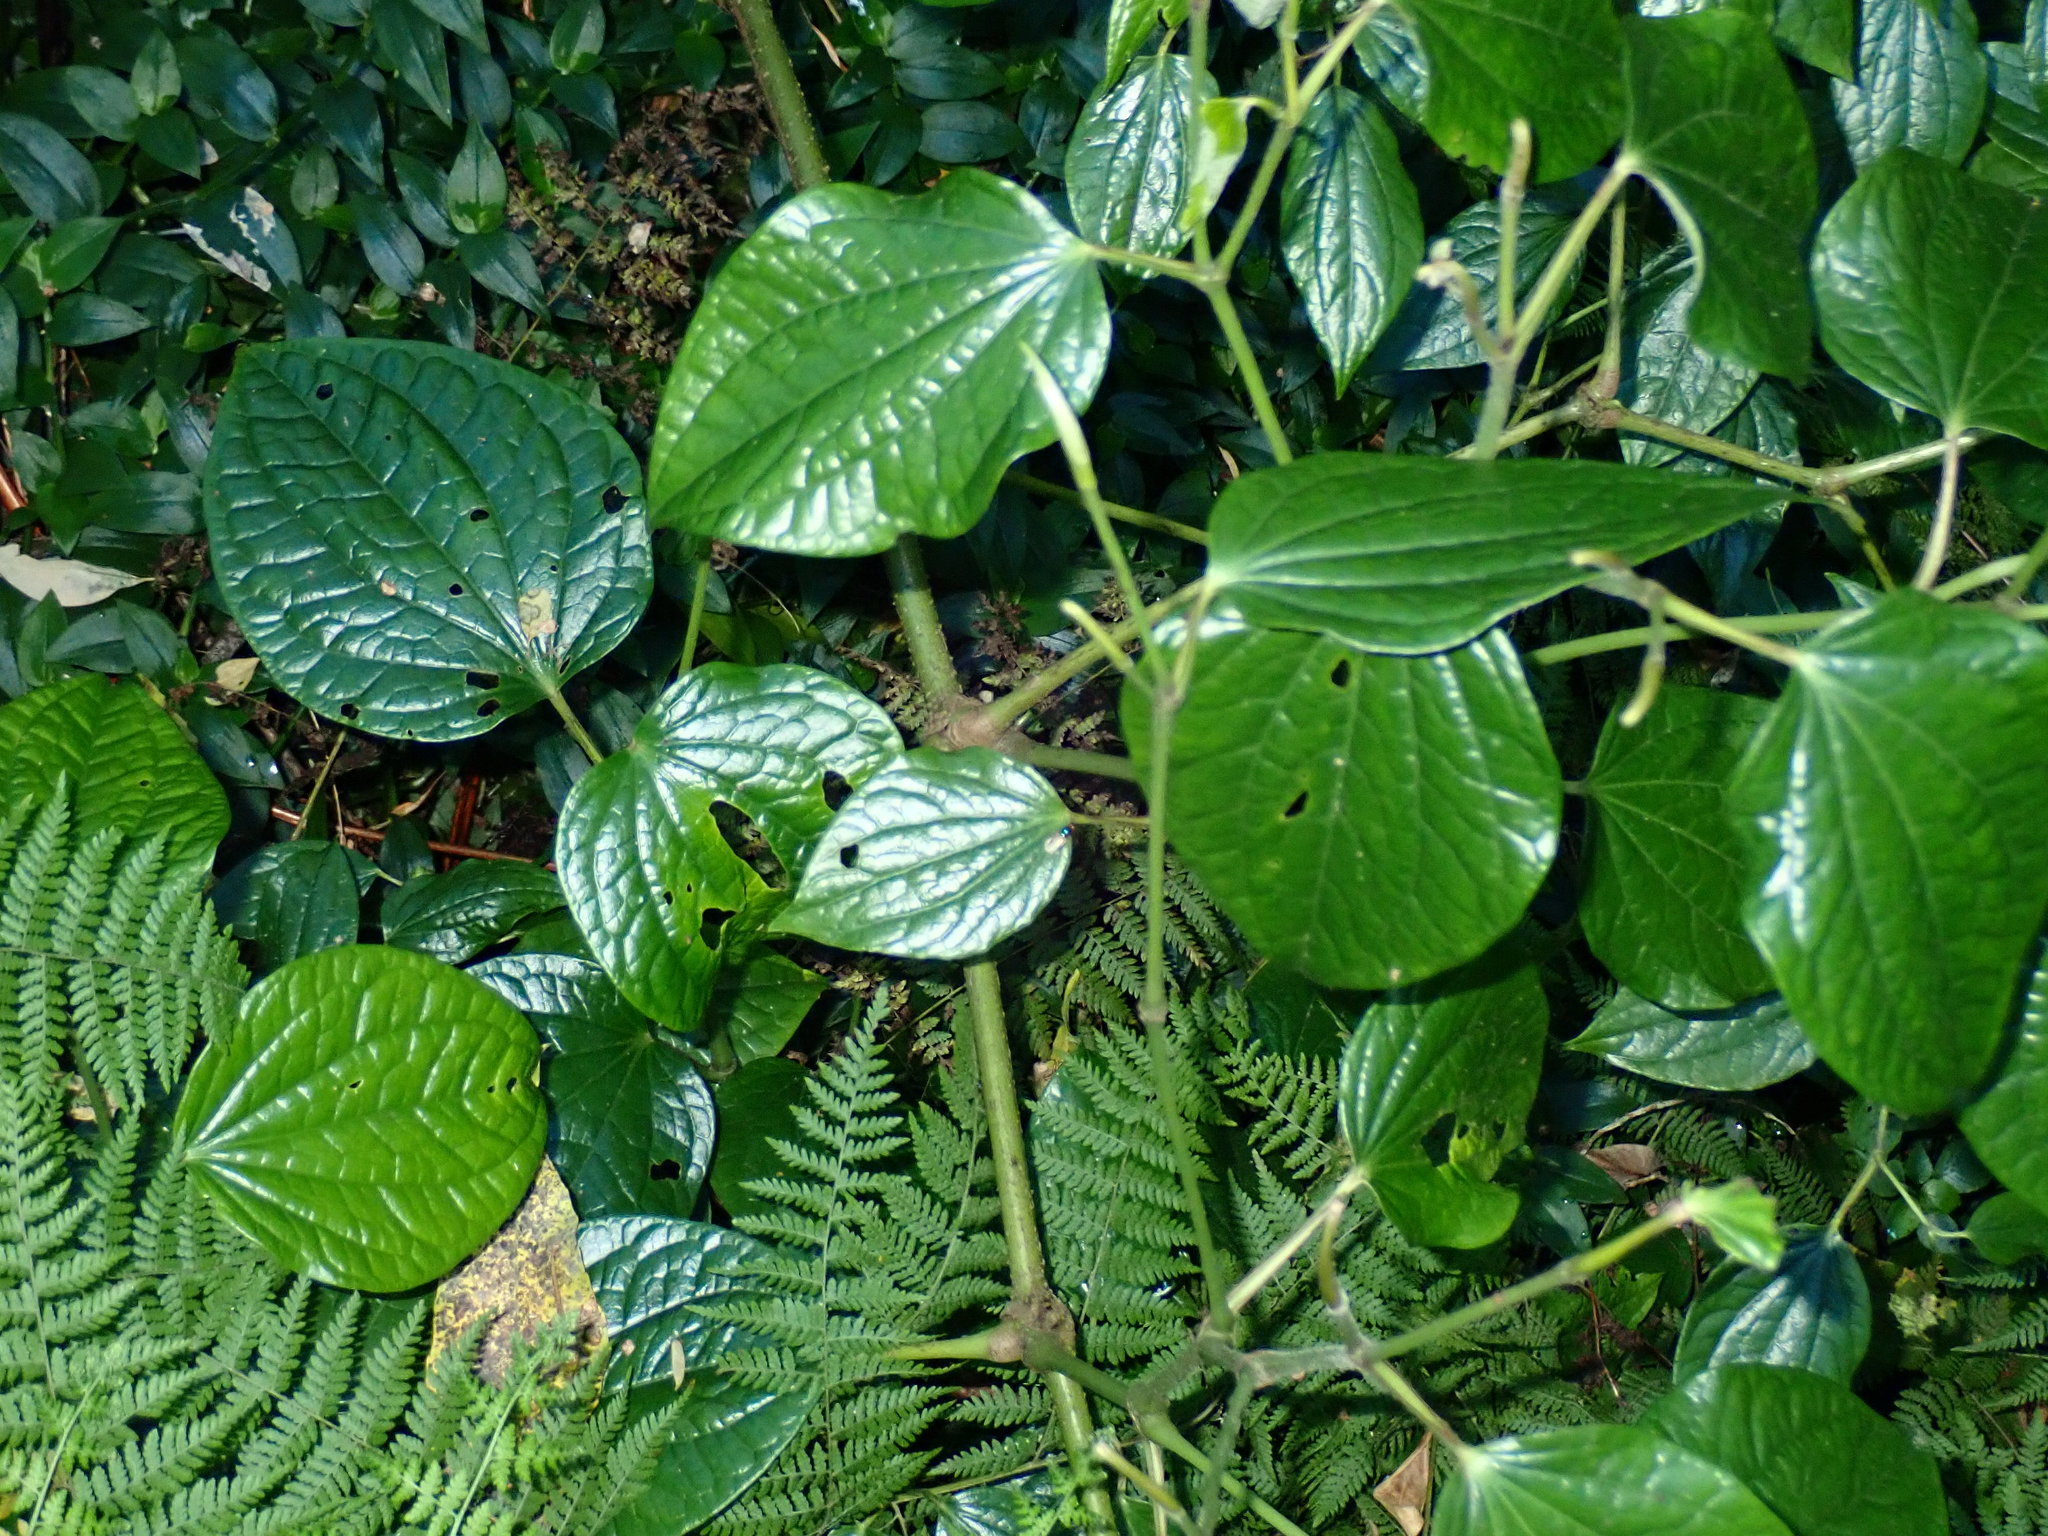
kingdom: Plantae
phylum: Tracheophyta
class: Magnoliopsida
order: Piperales
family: Piperaceae
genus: Piper
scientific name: Piper capense
